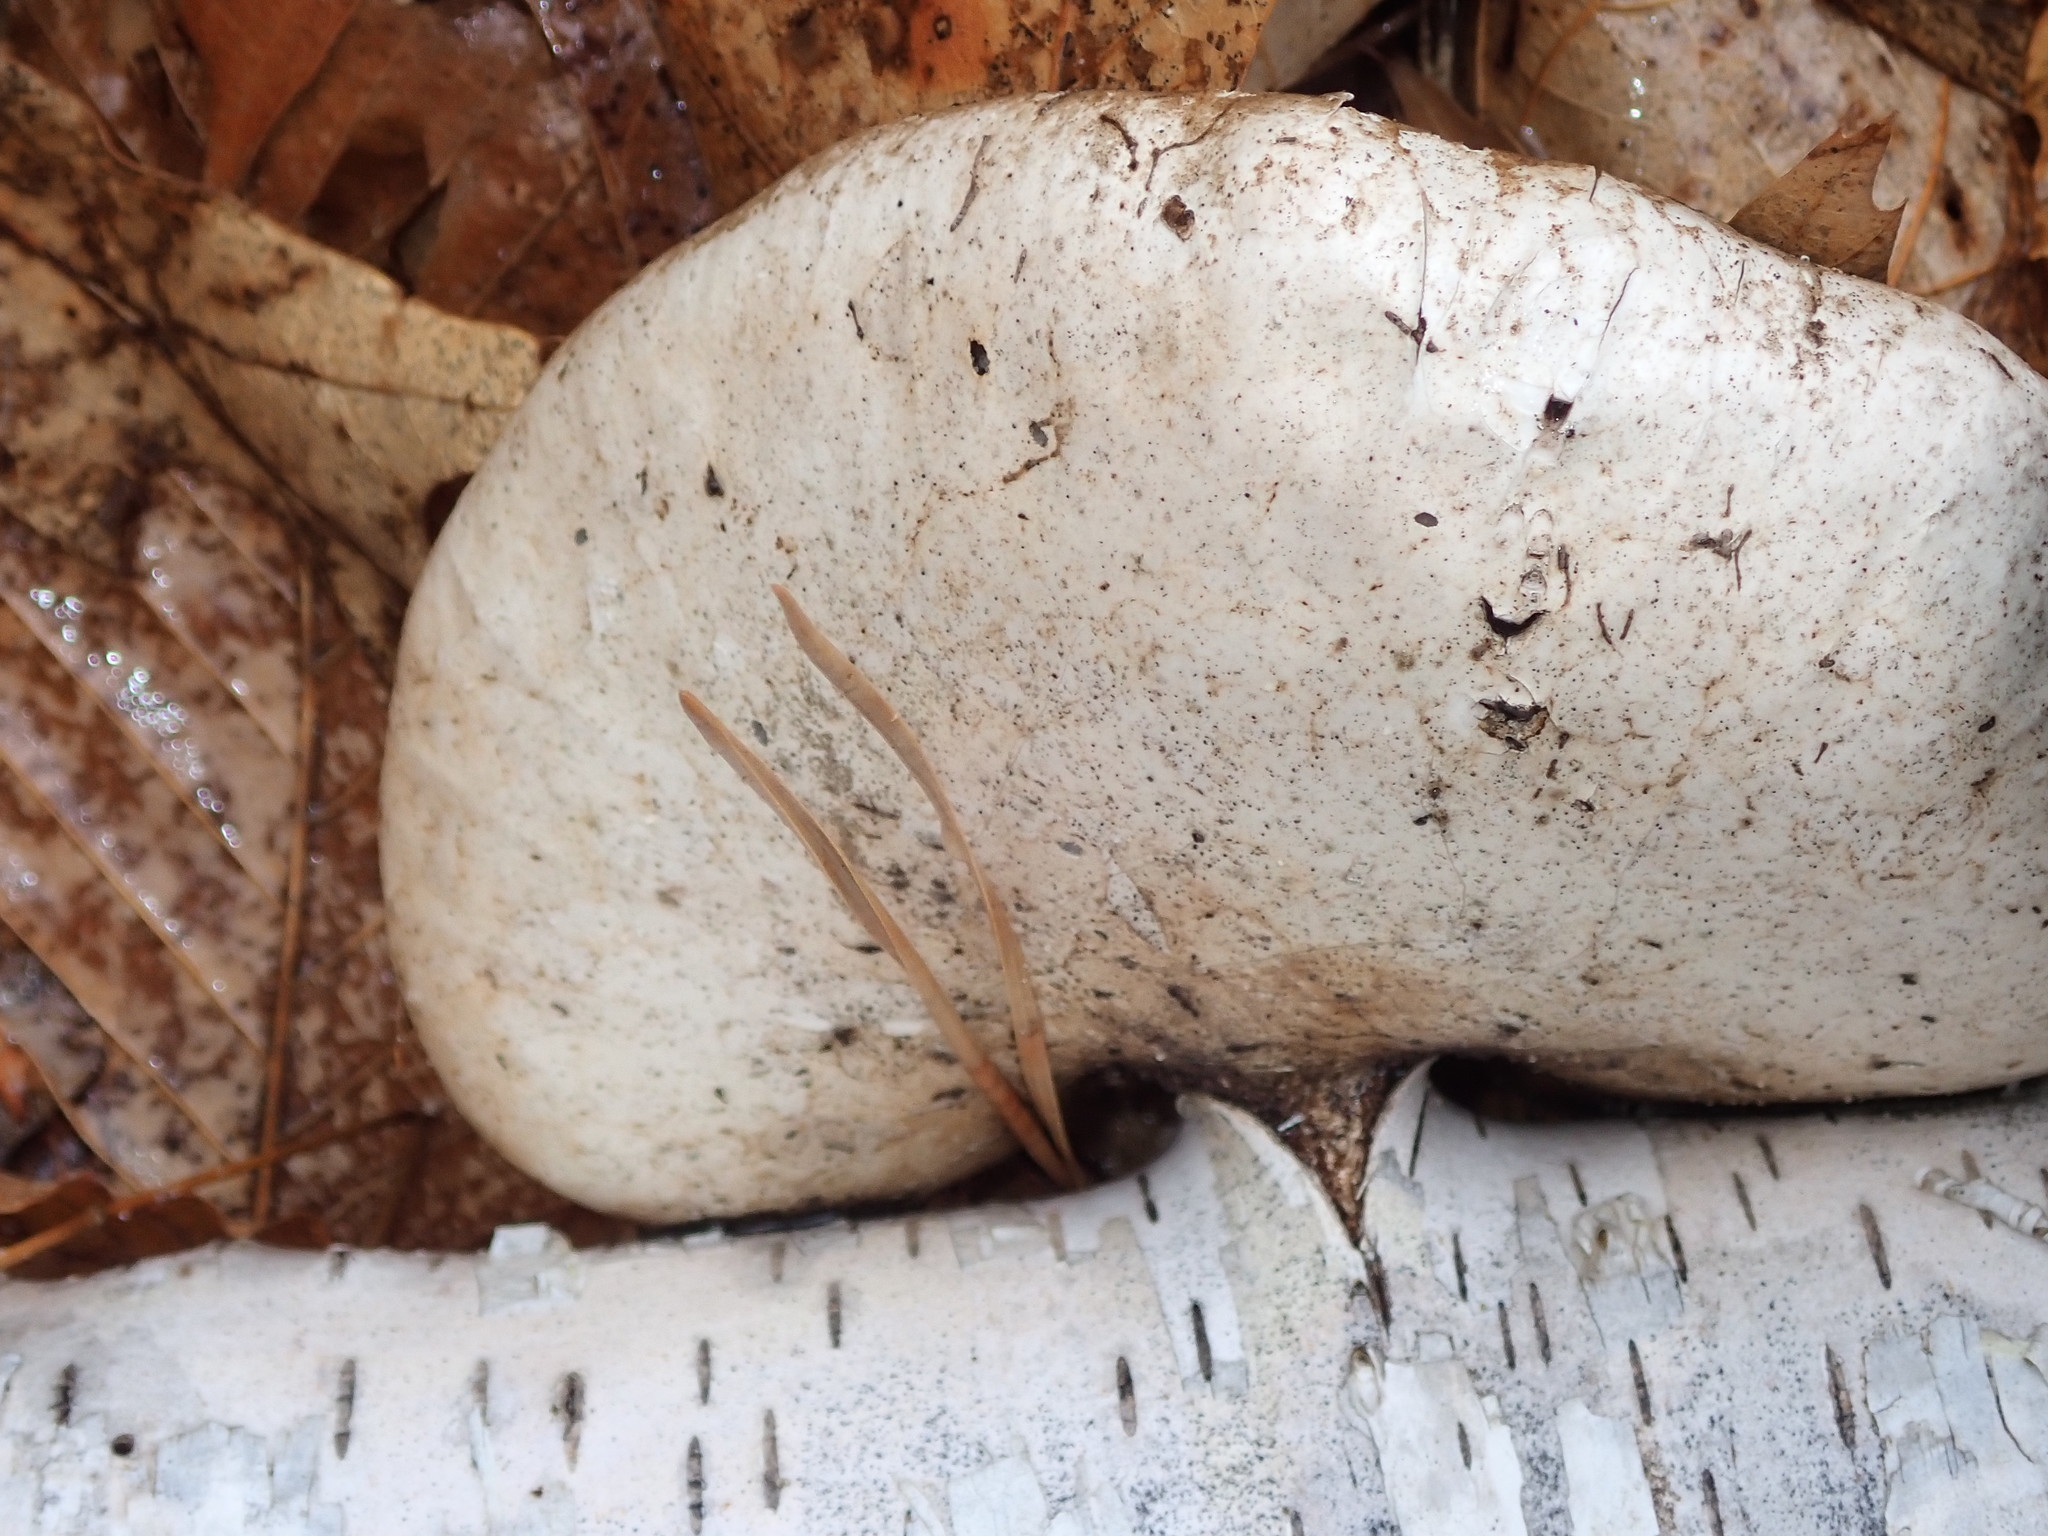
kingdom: Fungi
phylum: Basidiomycota
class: Agaricomycetes
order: Polyporales
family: Fomitopsidaceae
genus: Fomitopsis
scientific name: Fomitopsis betulina
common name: Birch polypore
